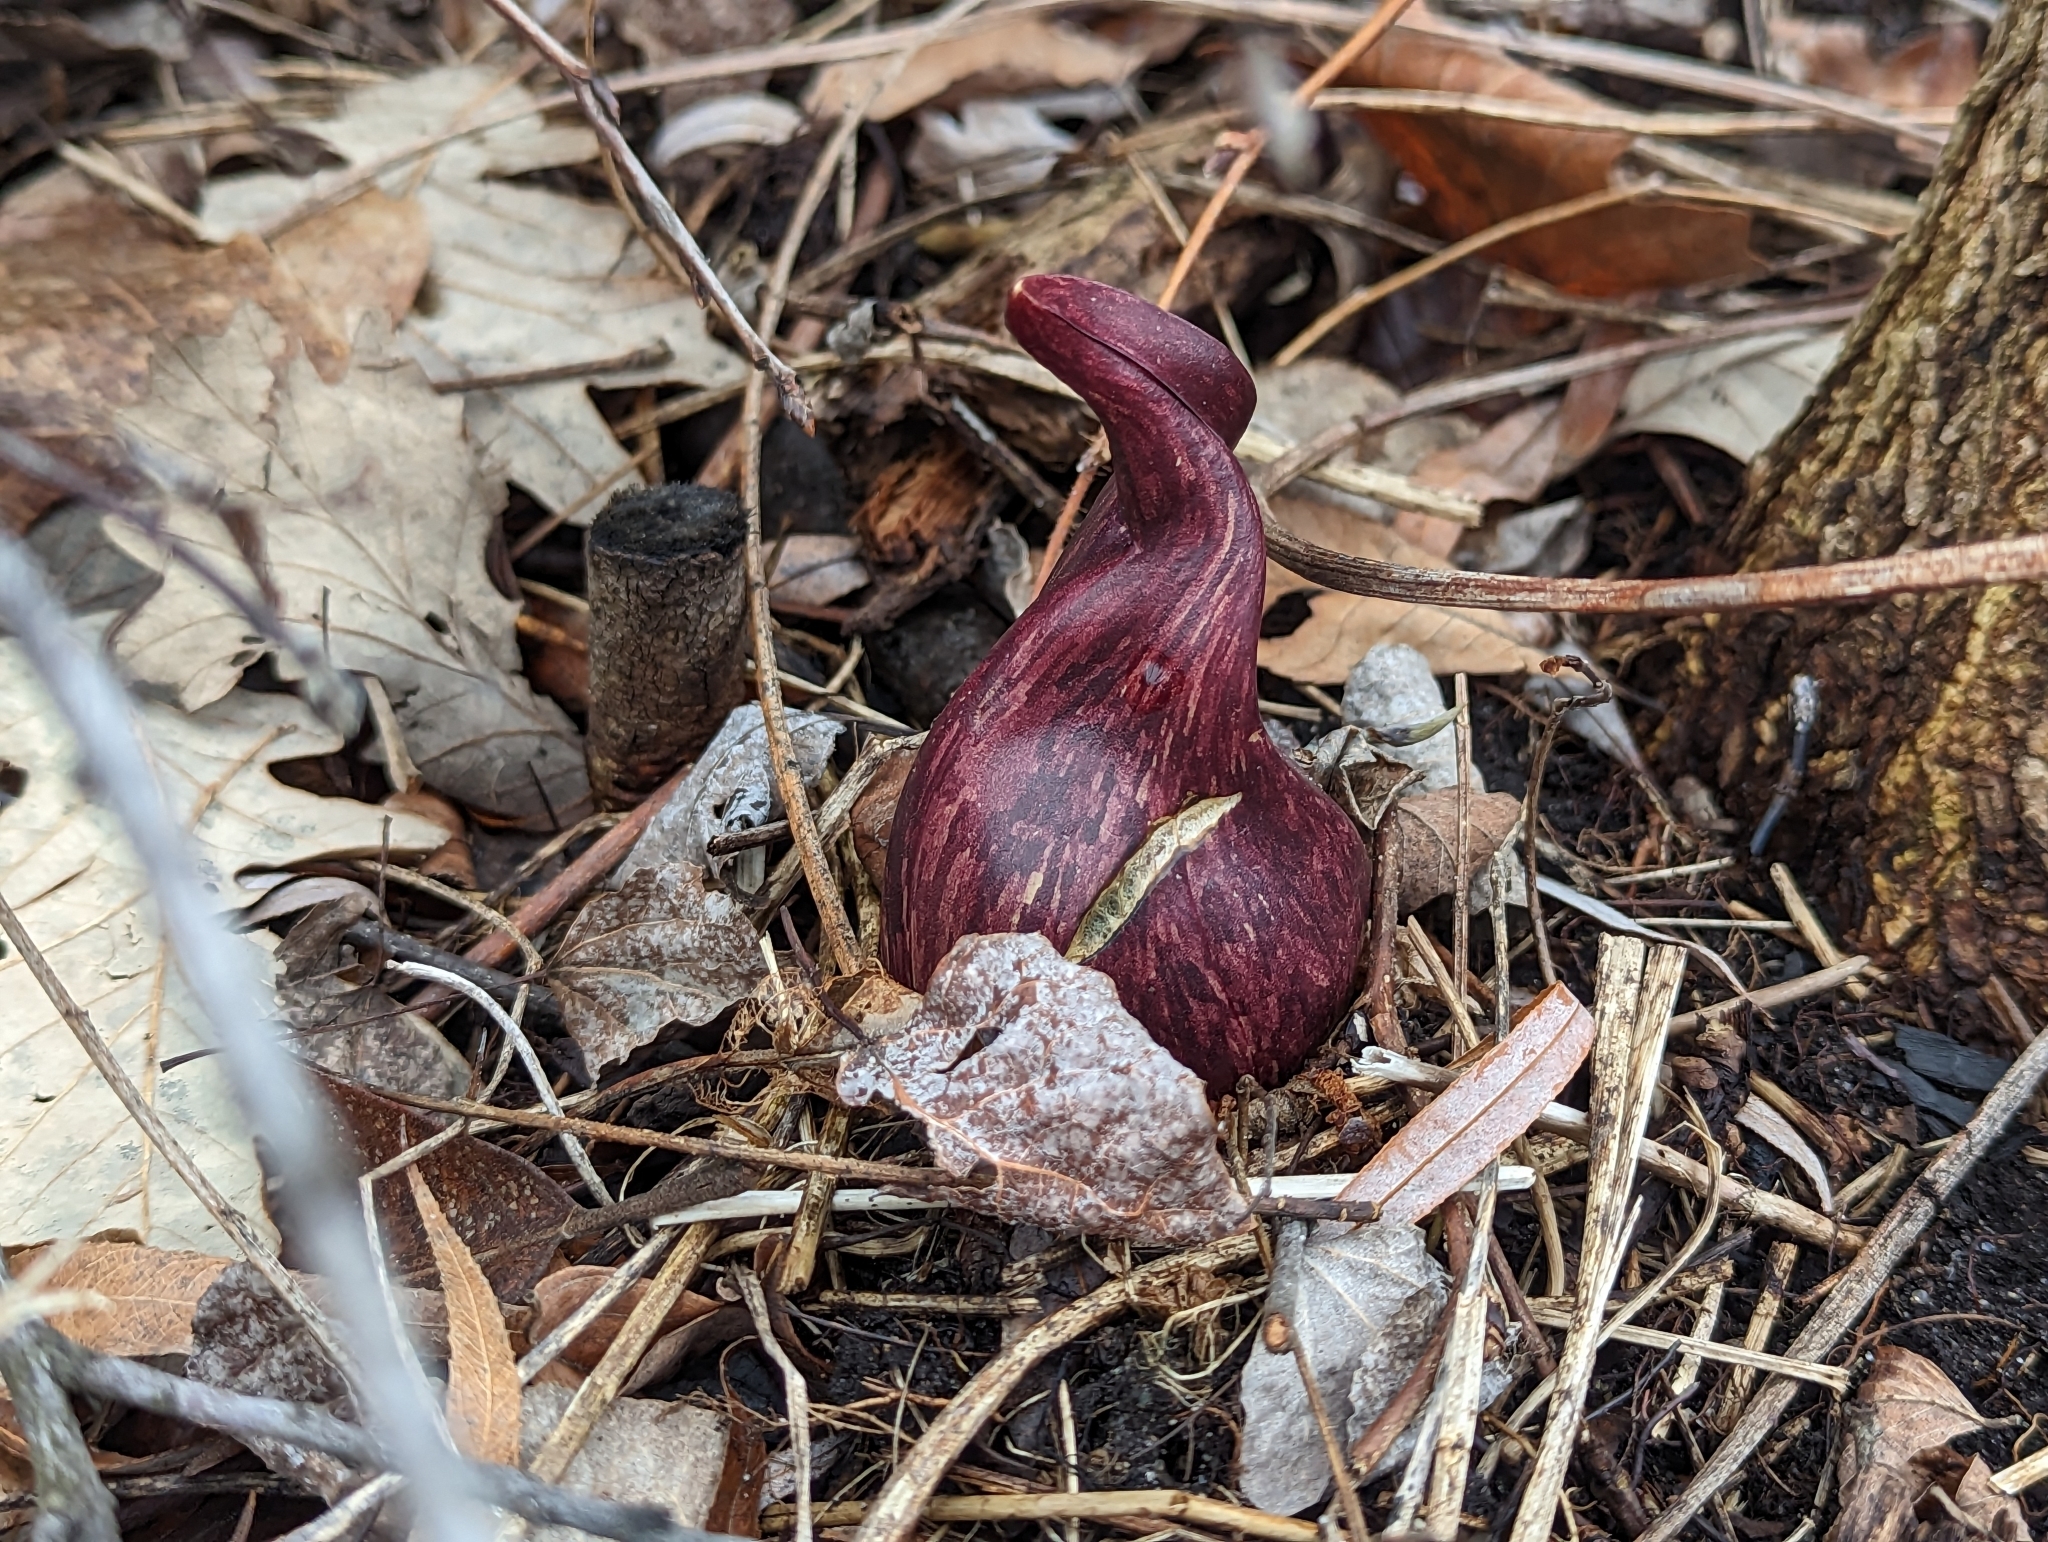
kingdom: Plantae
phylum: Tracheophyta
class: Liliopsida
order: Alismatales
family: Araceae
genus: Symplocarpus
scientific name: Symplocarpus foetidus
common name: Eastern skunk cabbage
